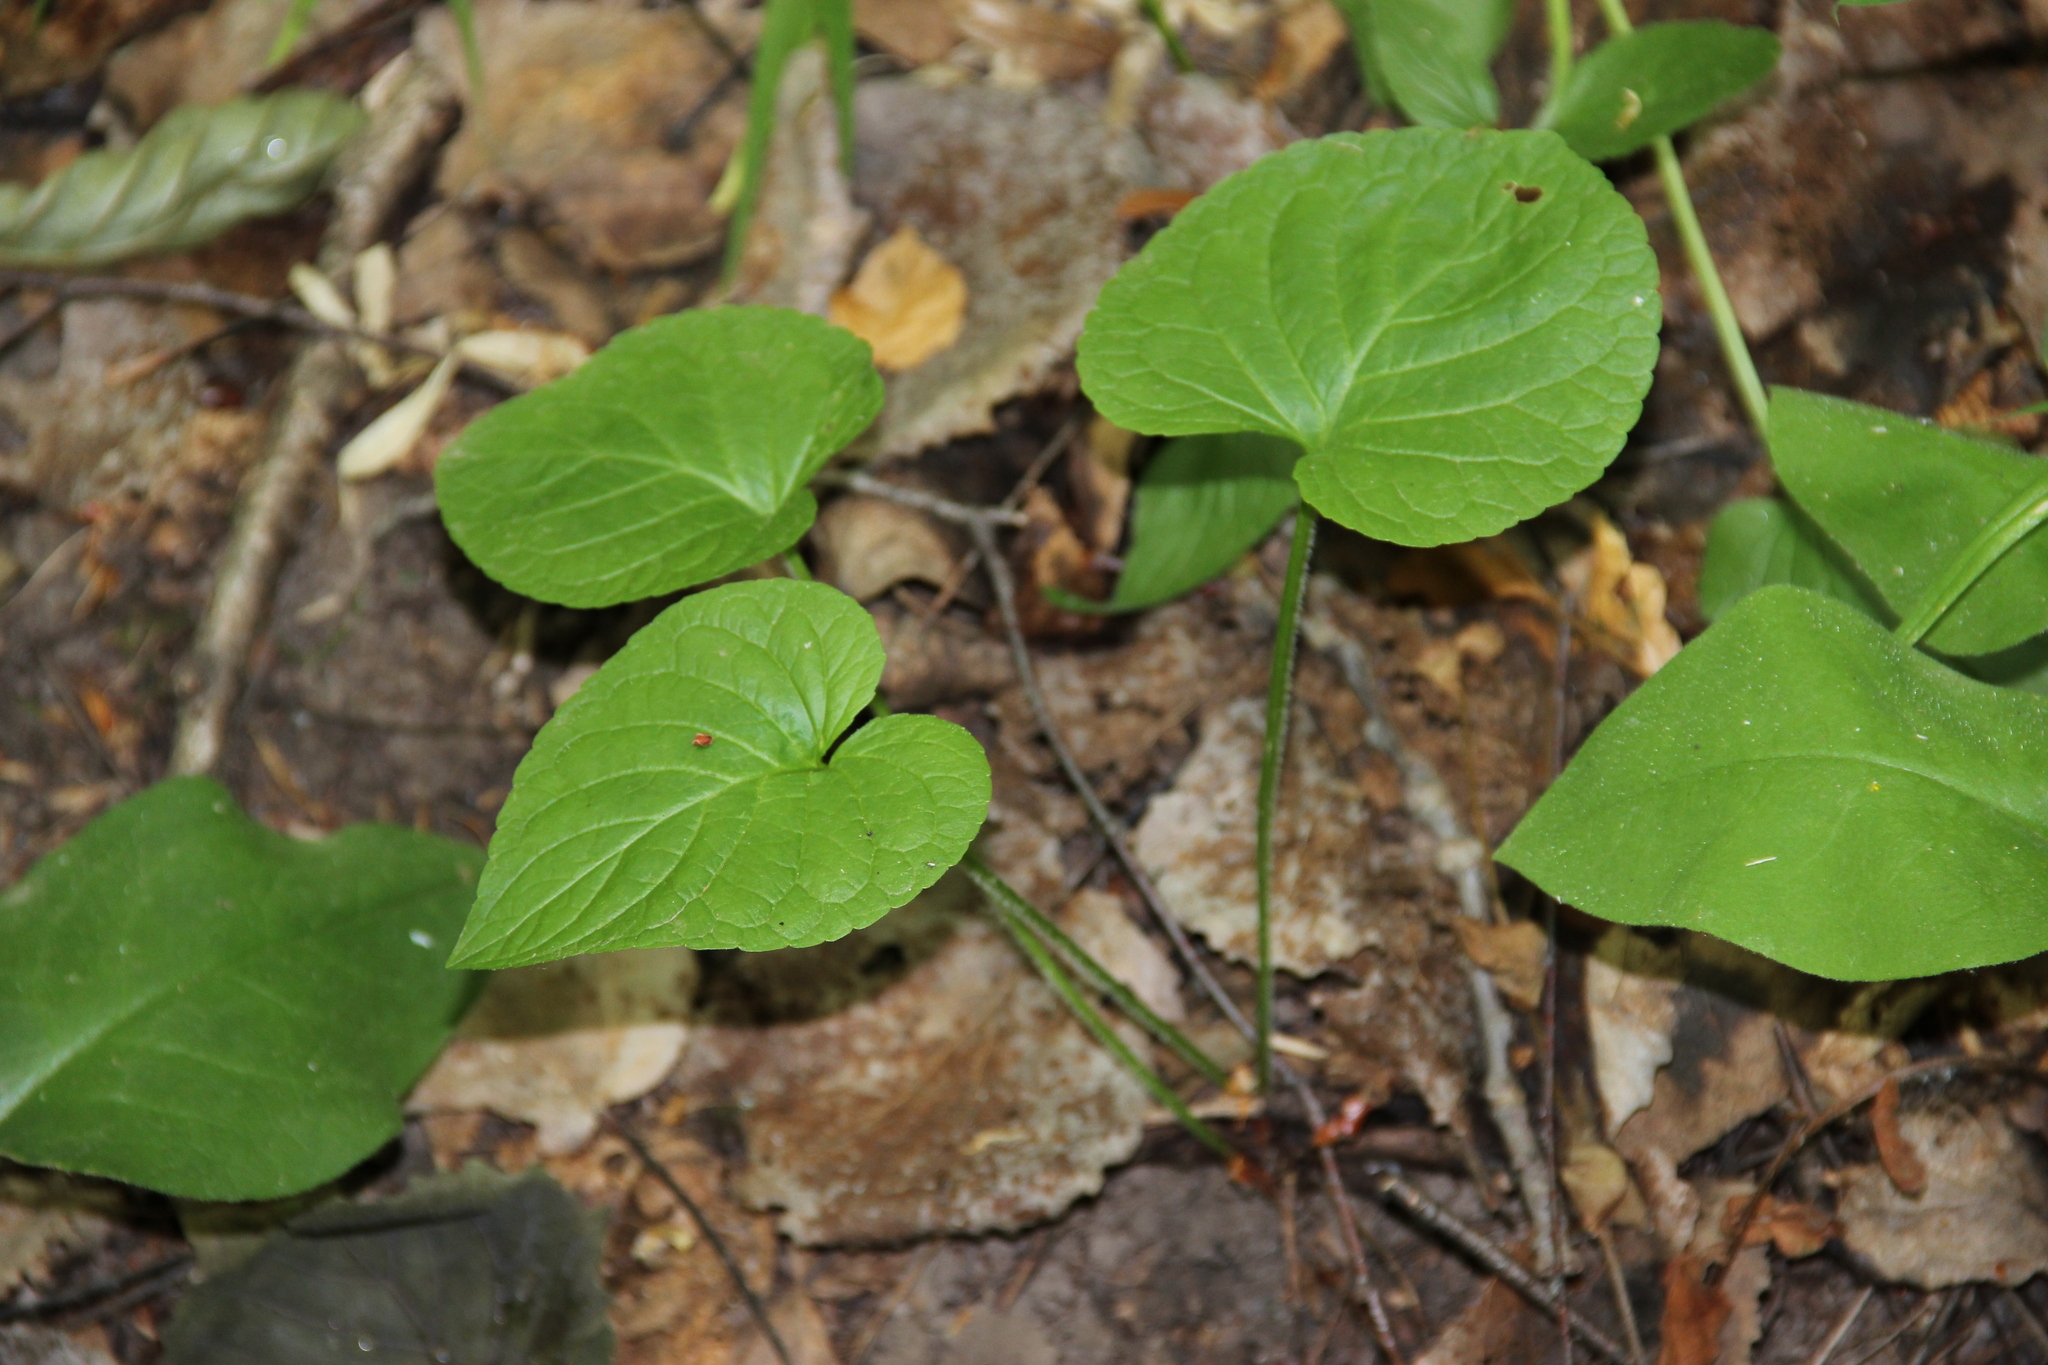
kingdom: Plantae
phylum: Tracheophyta
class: Magnoliopsida
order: Malpighiales
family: Violaceae
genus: Viola
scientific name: Viola mirabilis
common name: Wonder violet
